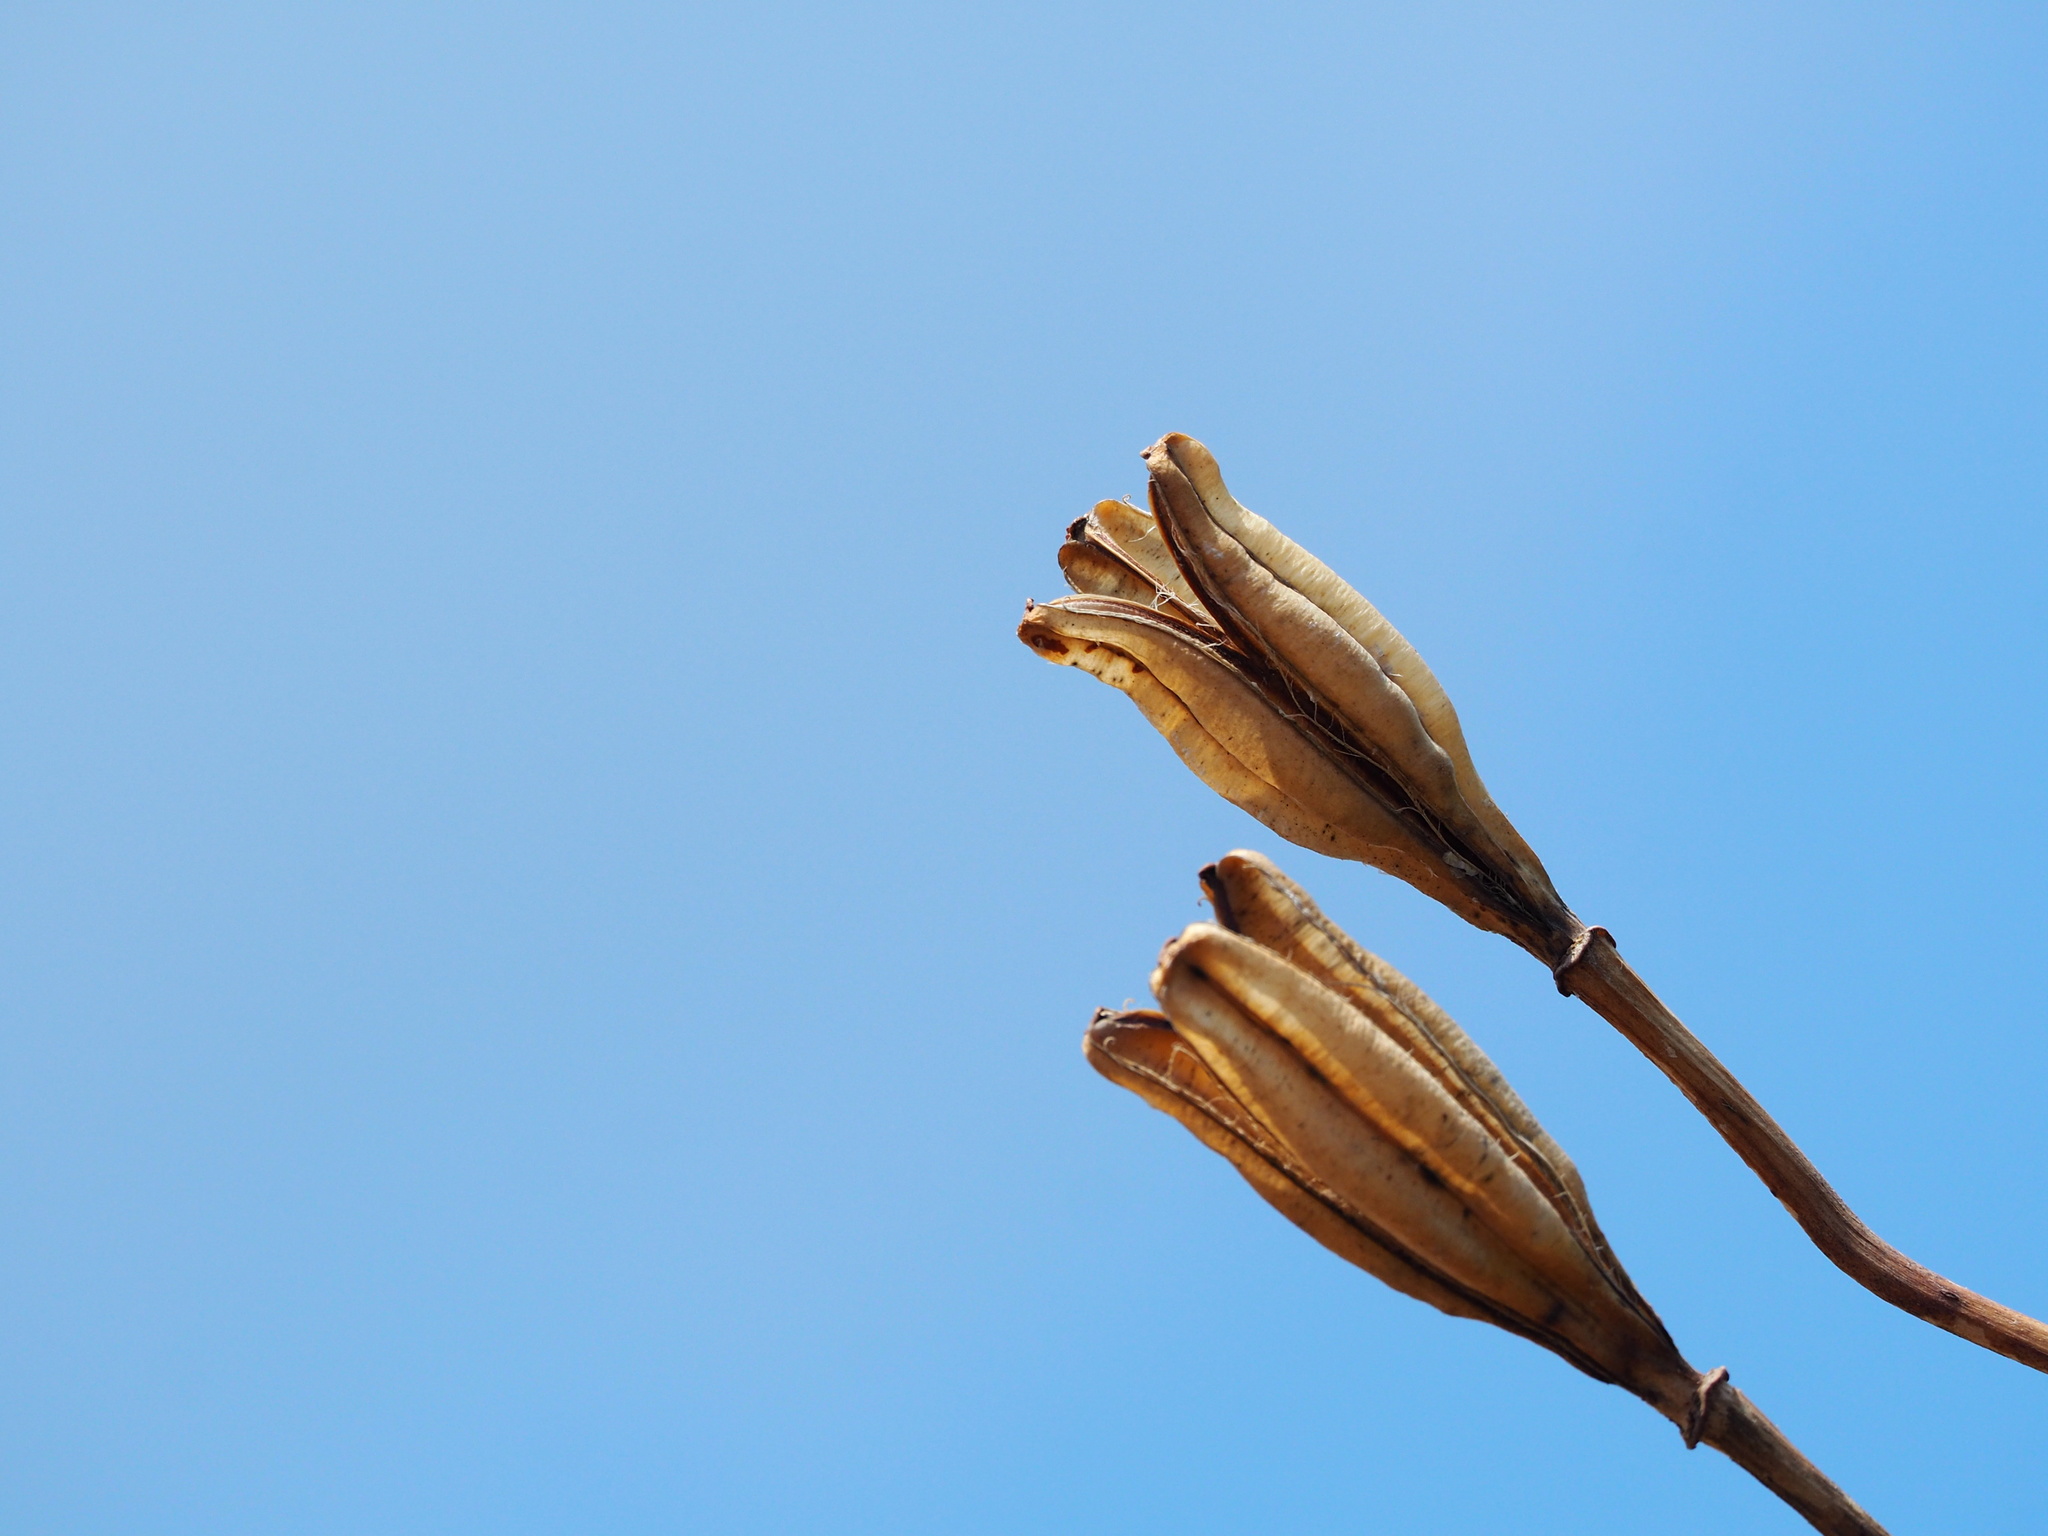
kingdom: Plantae
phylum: Tracheophyta
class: Liliopsida
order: Liliales
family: Liliaceae
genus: Lilium
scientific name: Lilium longiflorum
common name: Easter lily
